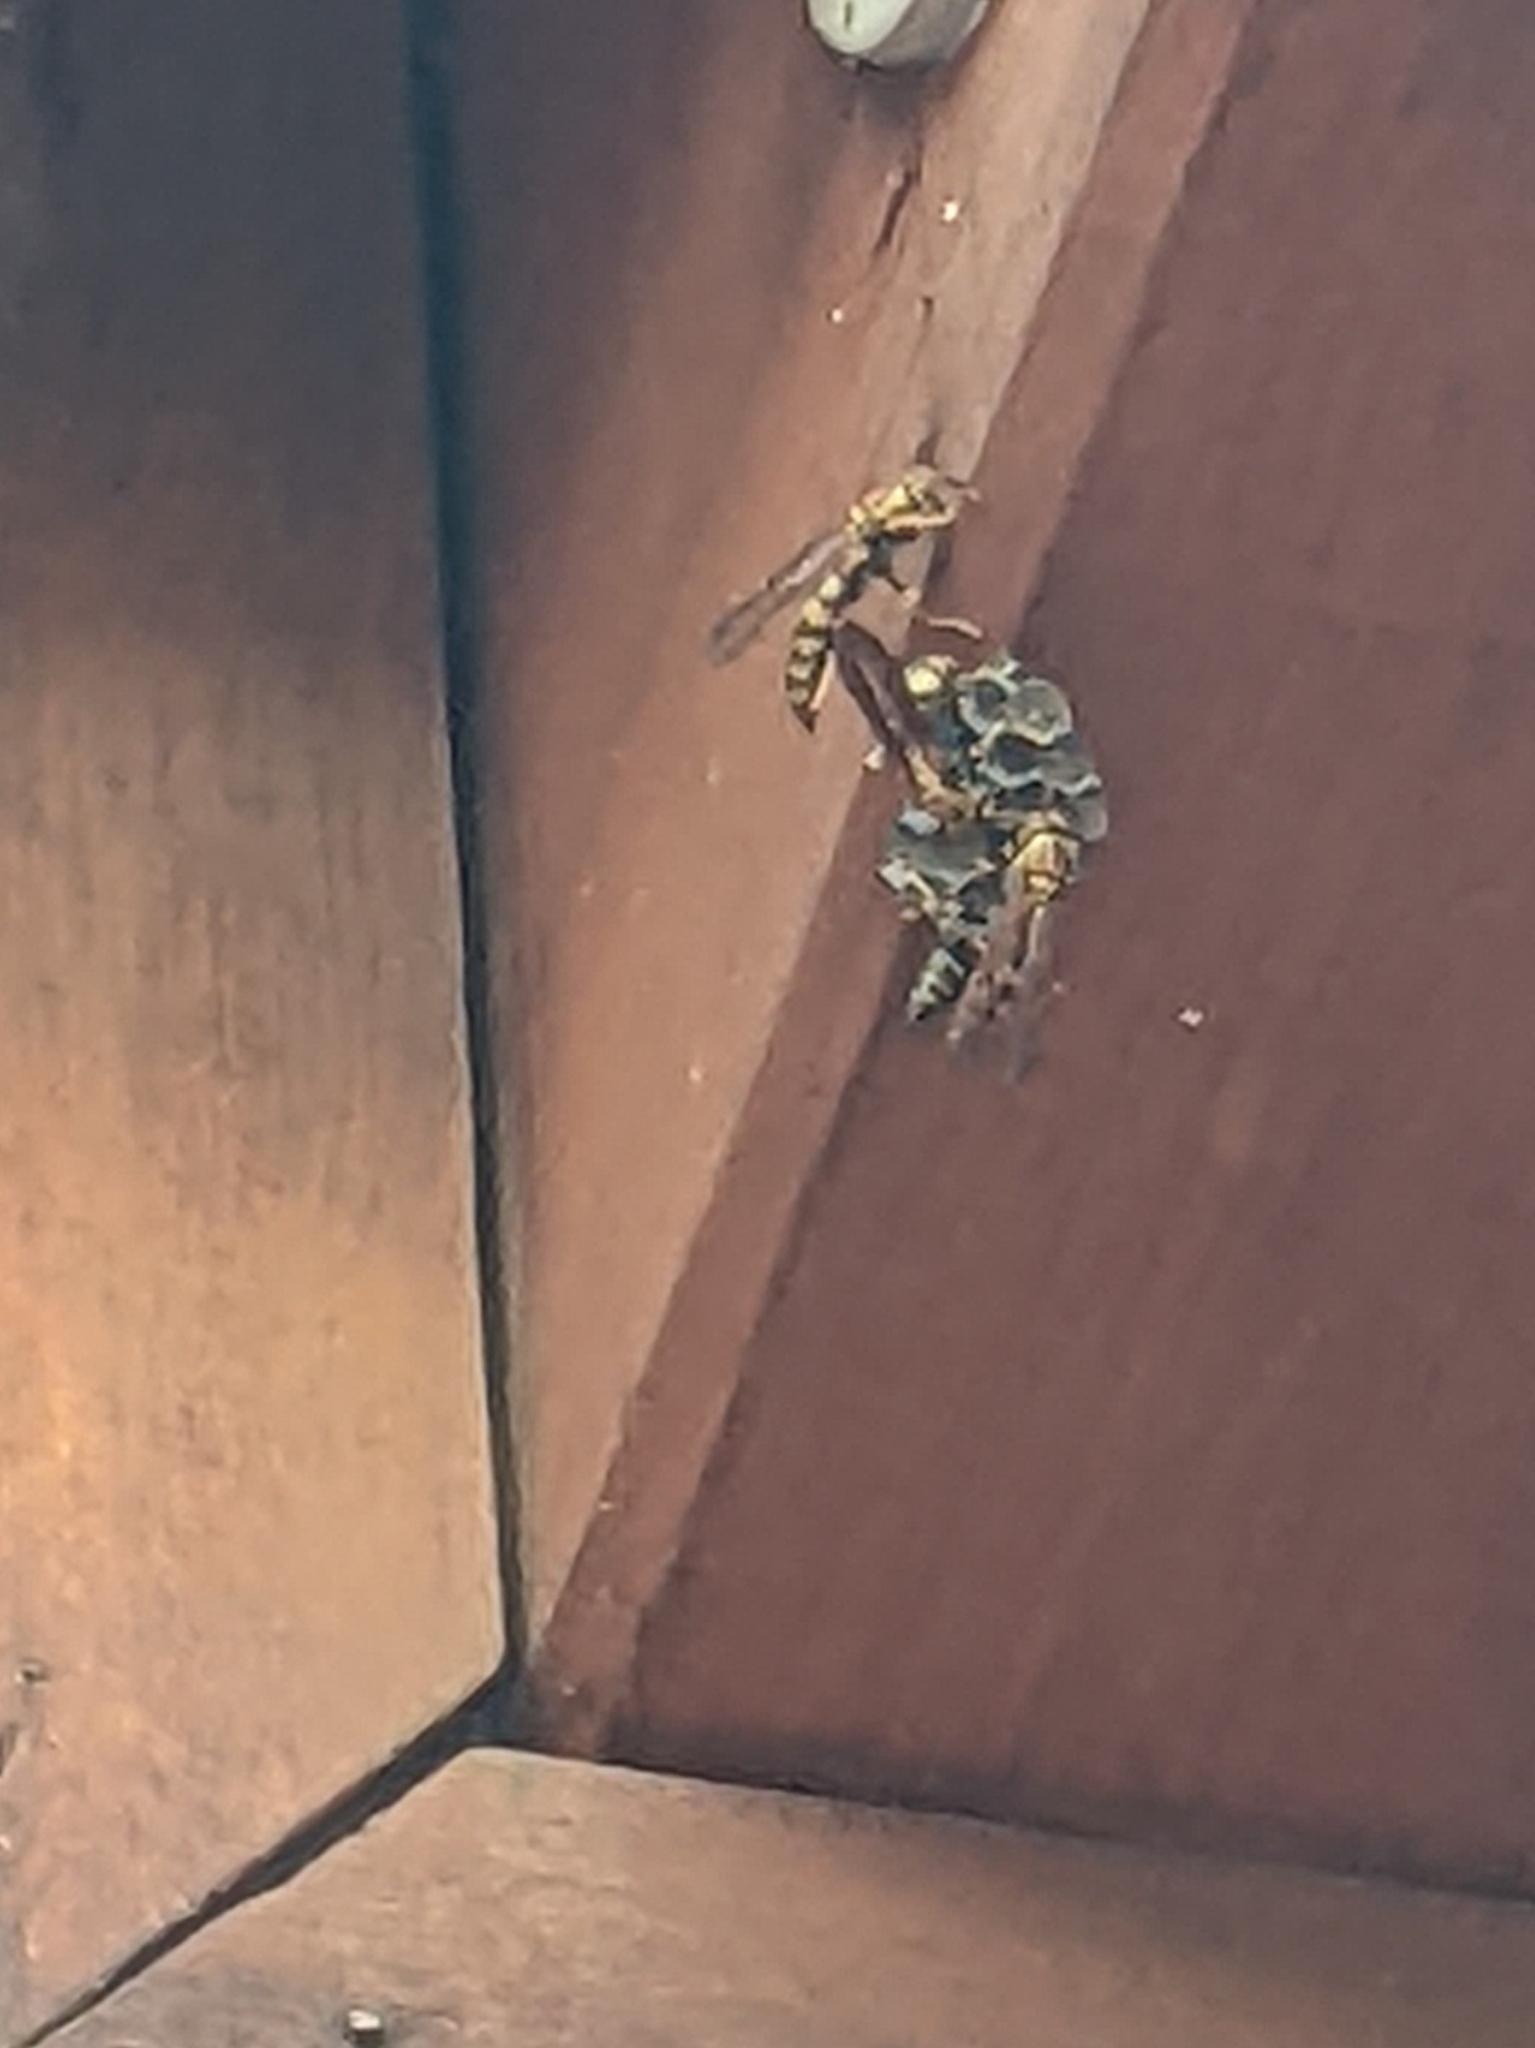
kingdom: Animalia
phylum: Arthropoda
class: Insecta
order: Hymenoptera
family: Eumenidae
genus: Polistes
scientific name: Polistes myersi
